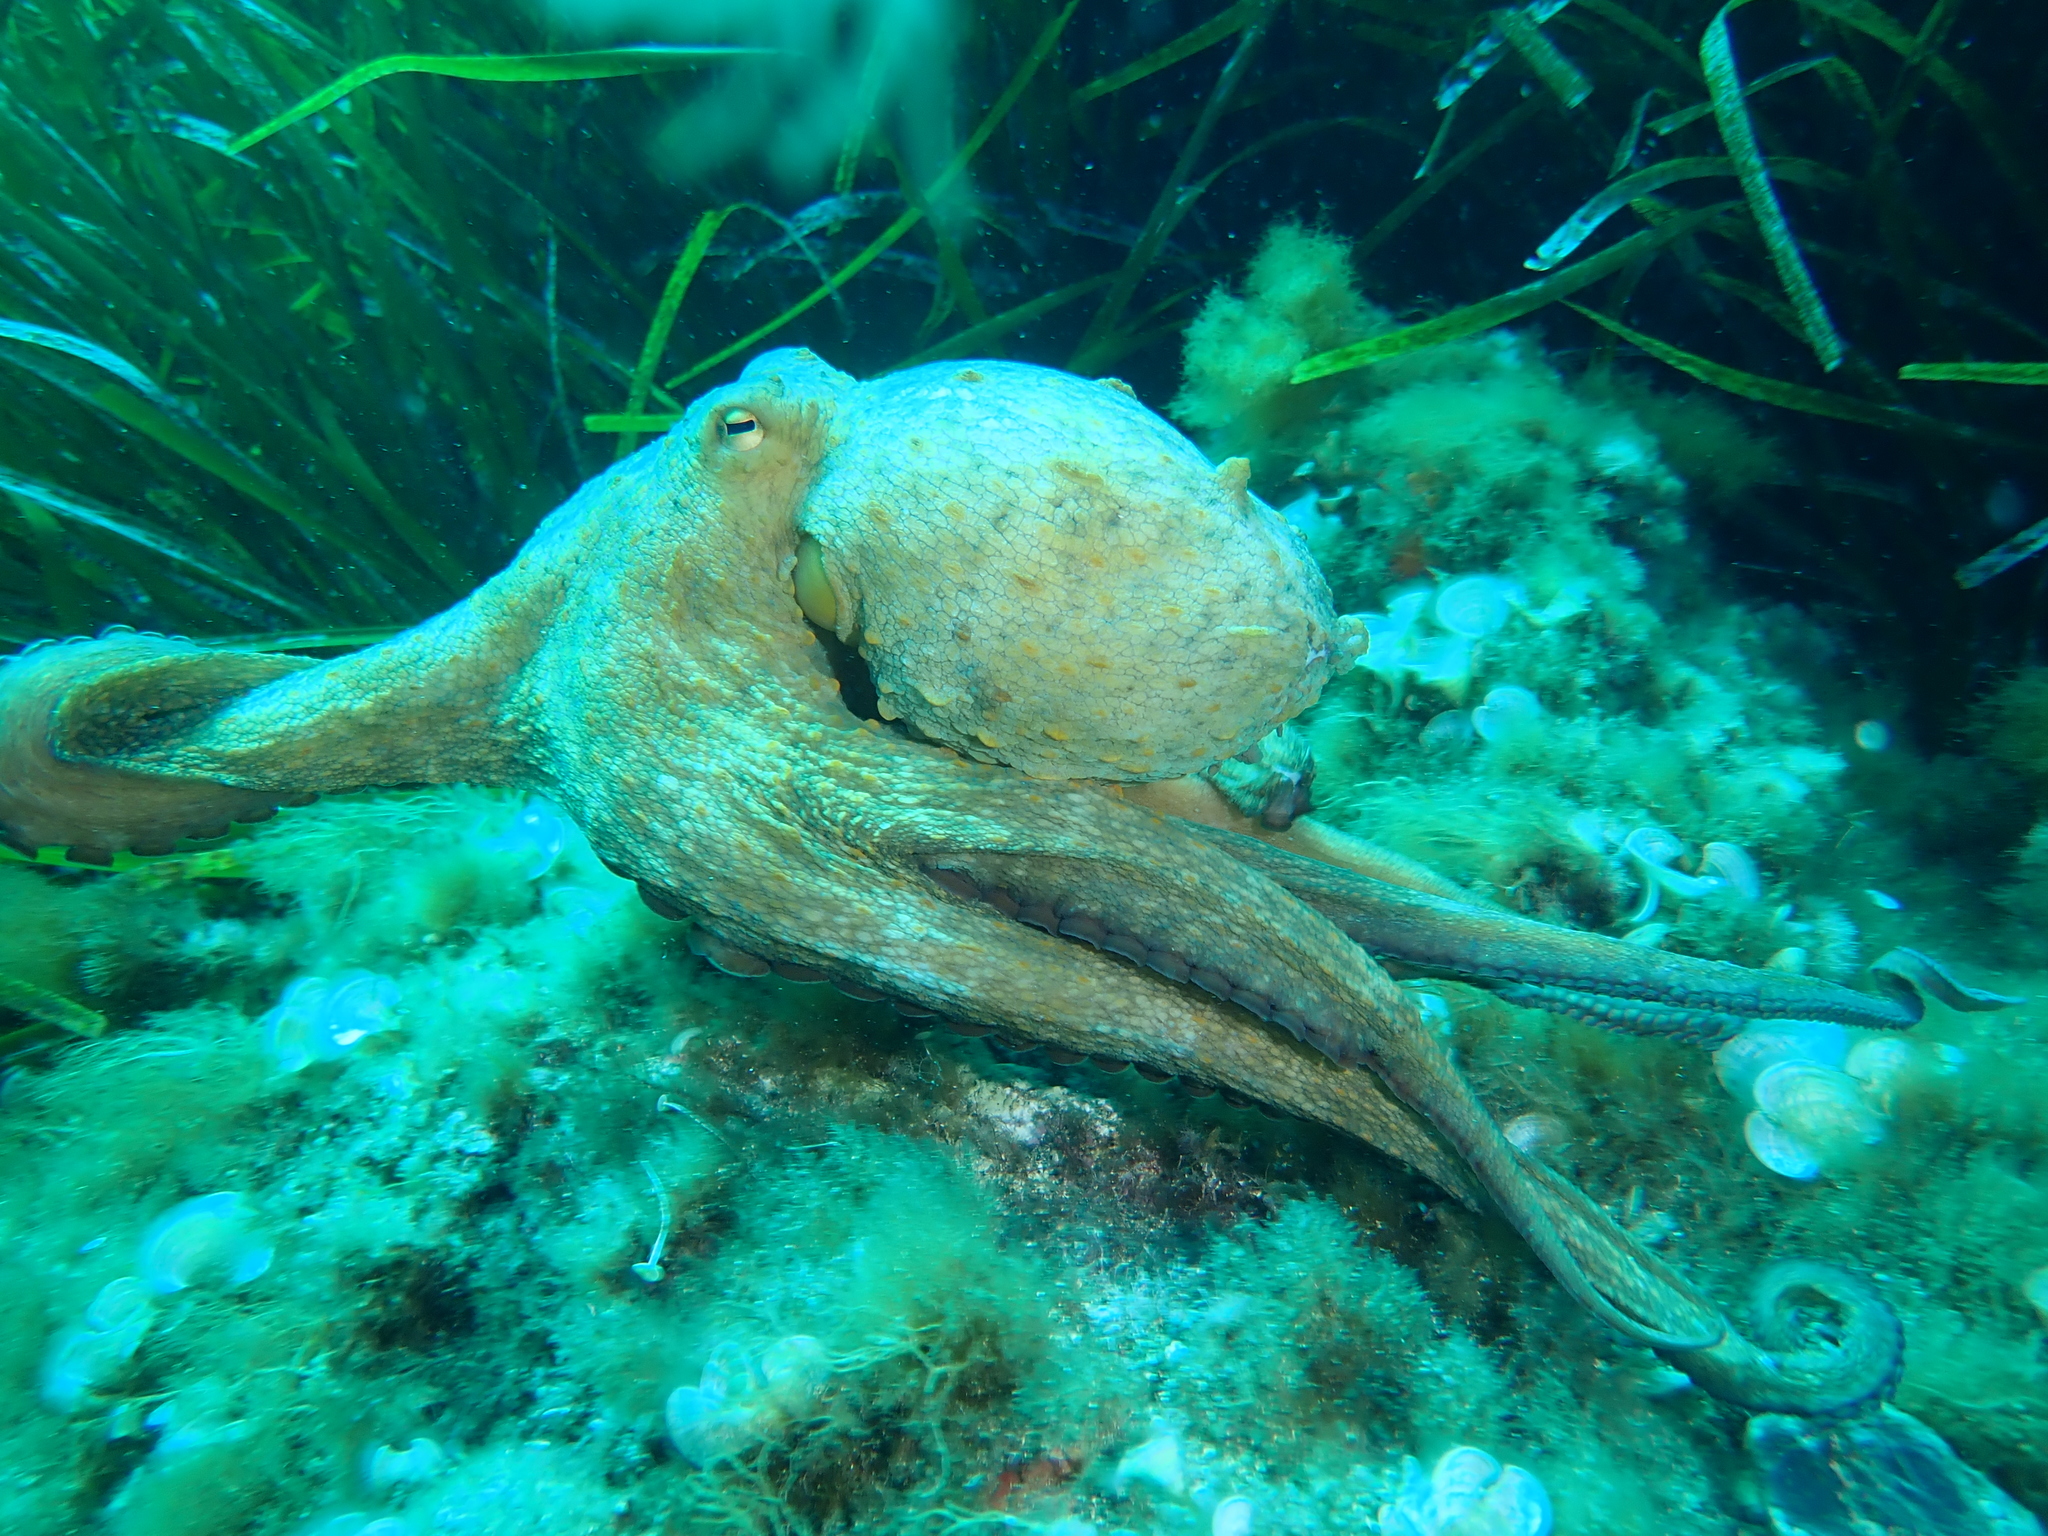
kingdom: Animalia
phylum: Mollusca
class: Cephalopoda
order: Octopoda
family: Octopodidae
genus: Octopus
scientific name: Octopus vulgaris
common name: Common octopus
